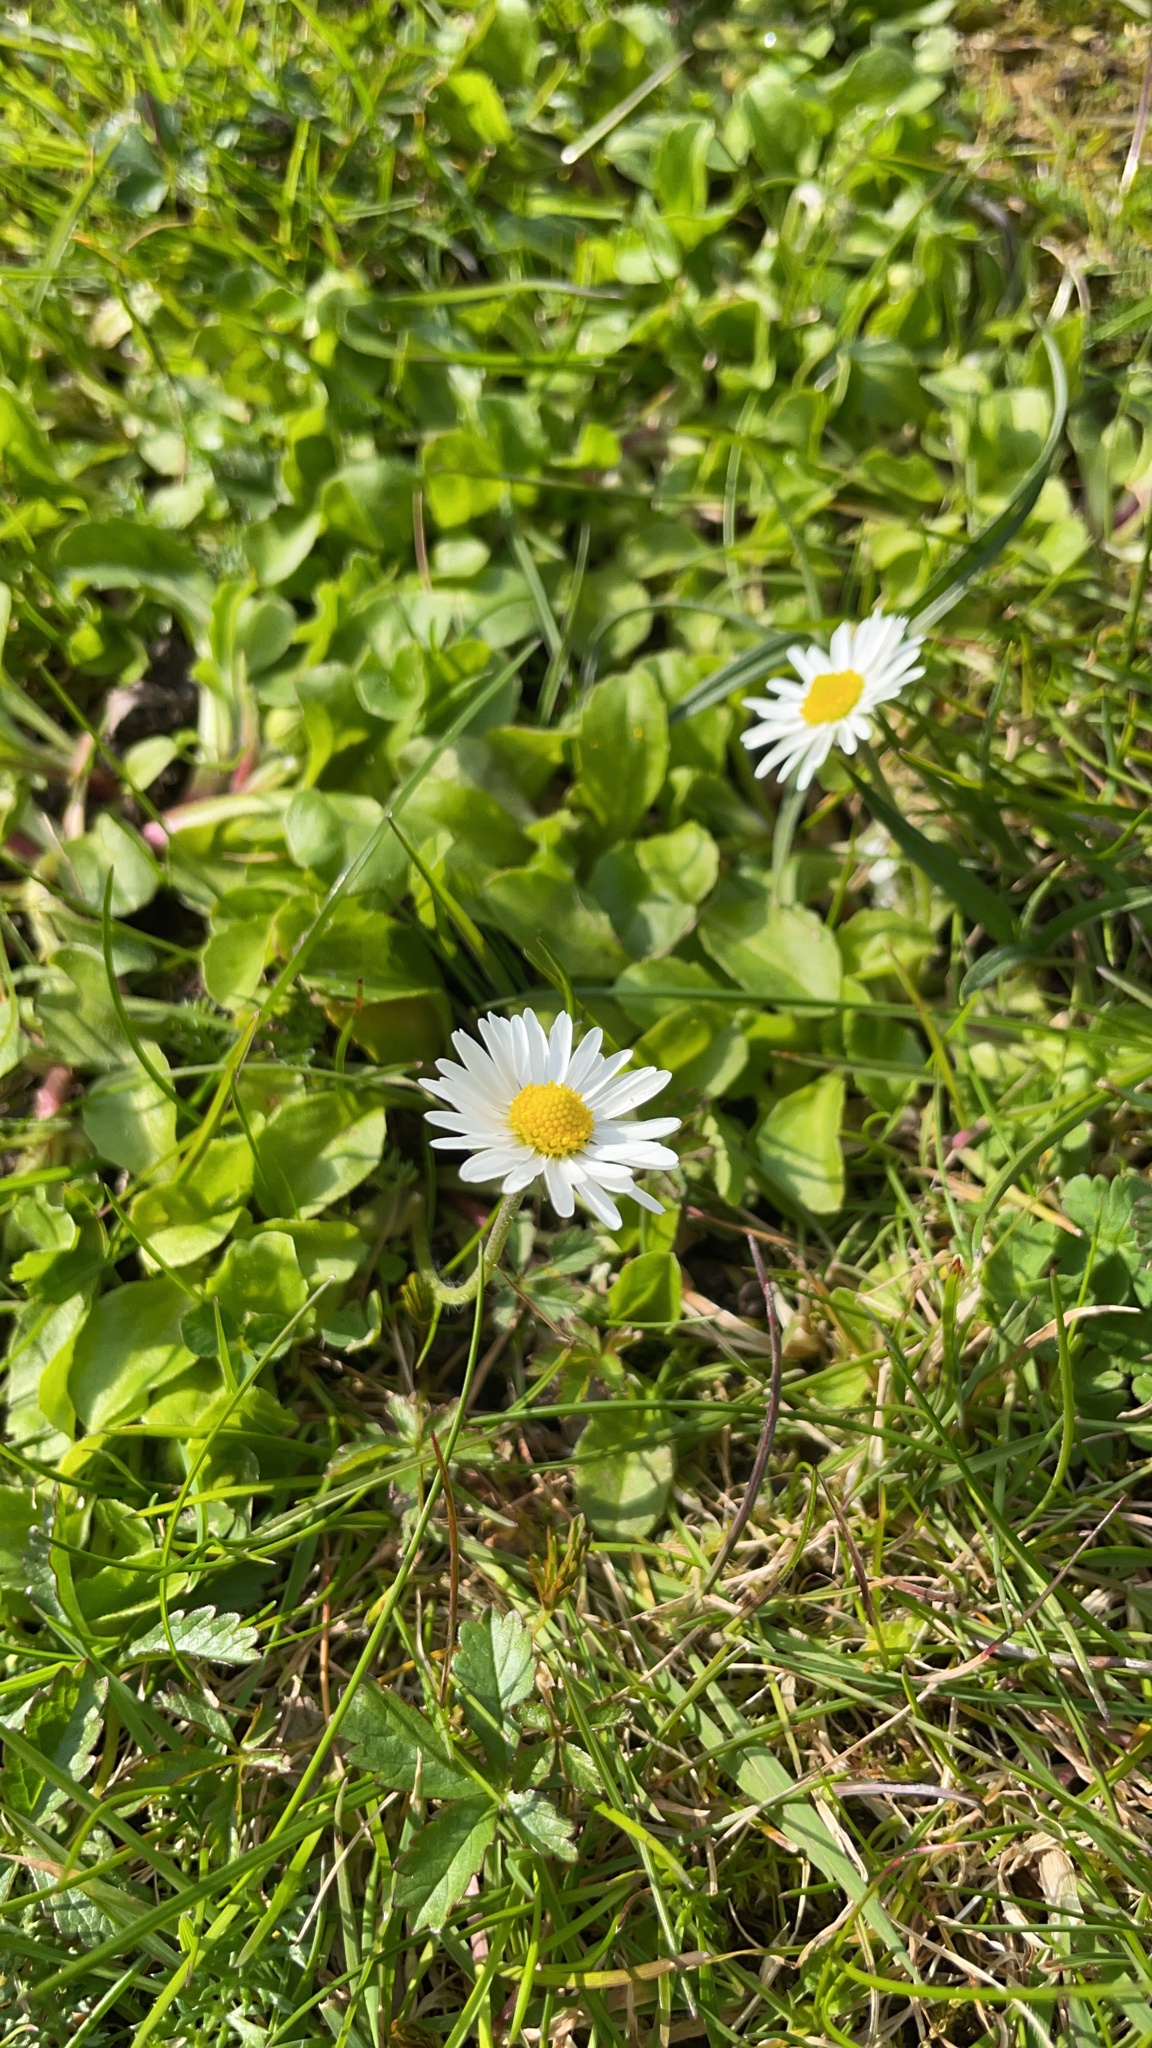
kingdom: Plantae
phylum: Tracheophyta
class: Magnoliopsida
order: Asterales
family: Asteraceae
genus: Bellis
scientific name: Bellis perennis
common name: Lawndaisy
